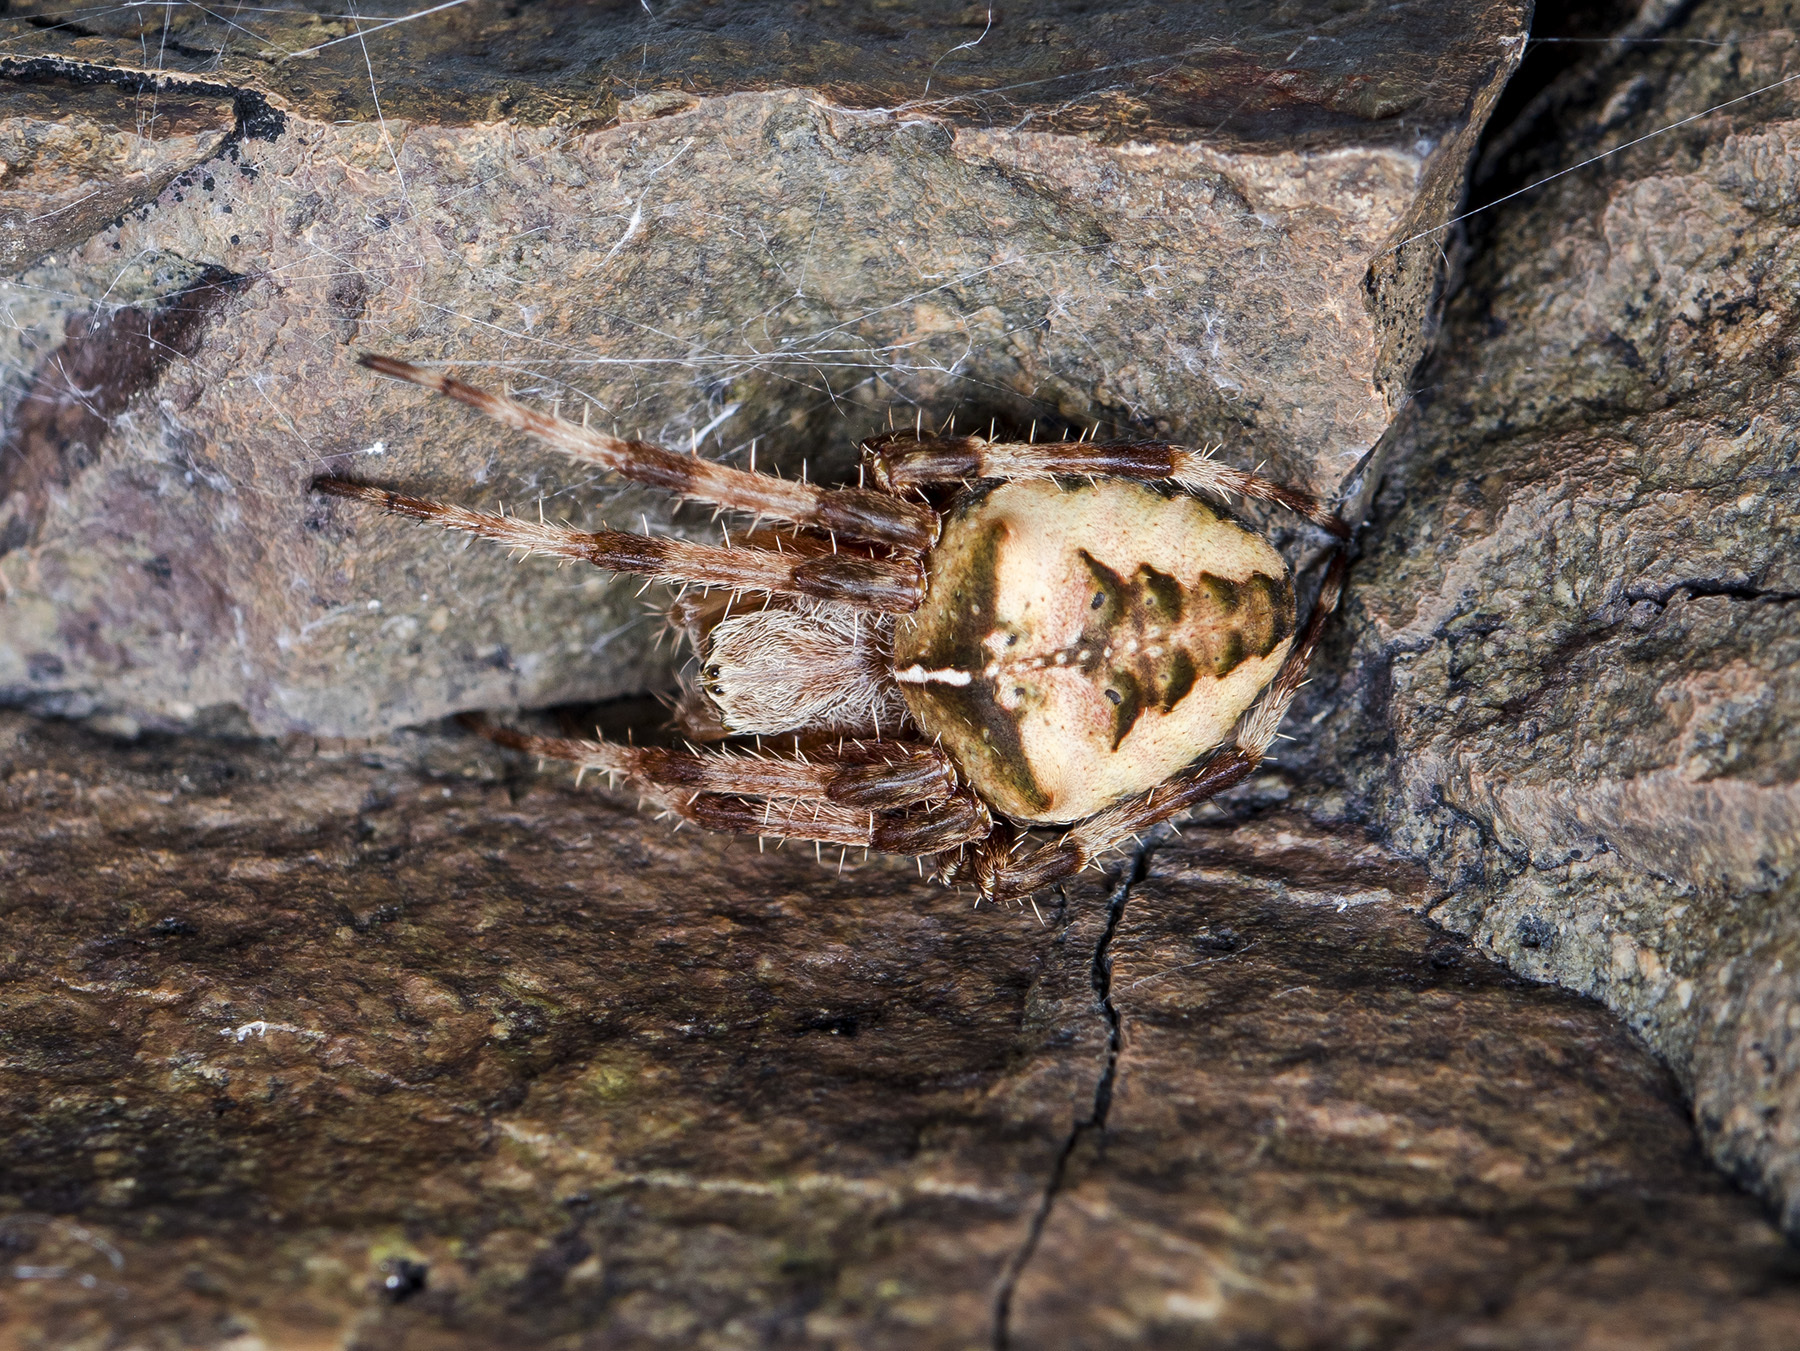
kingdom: Animalia
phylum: Arthropoda
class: Arachnida
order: Araneae
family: Araneidae
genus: Araneus
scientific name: Araneus tartaricus
